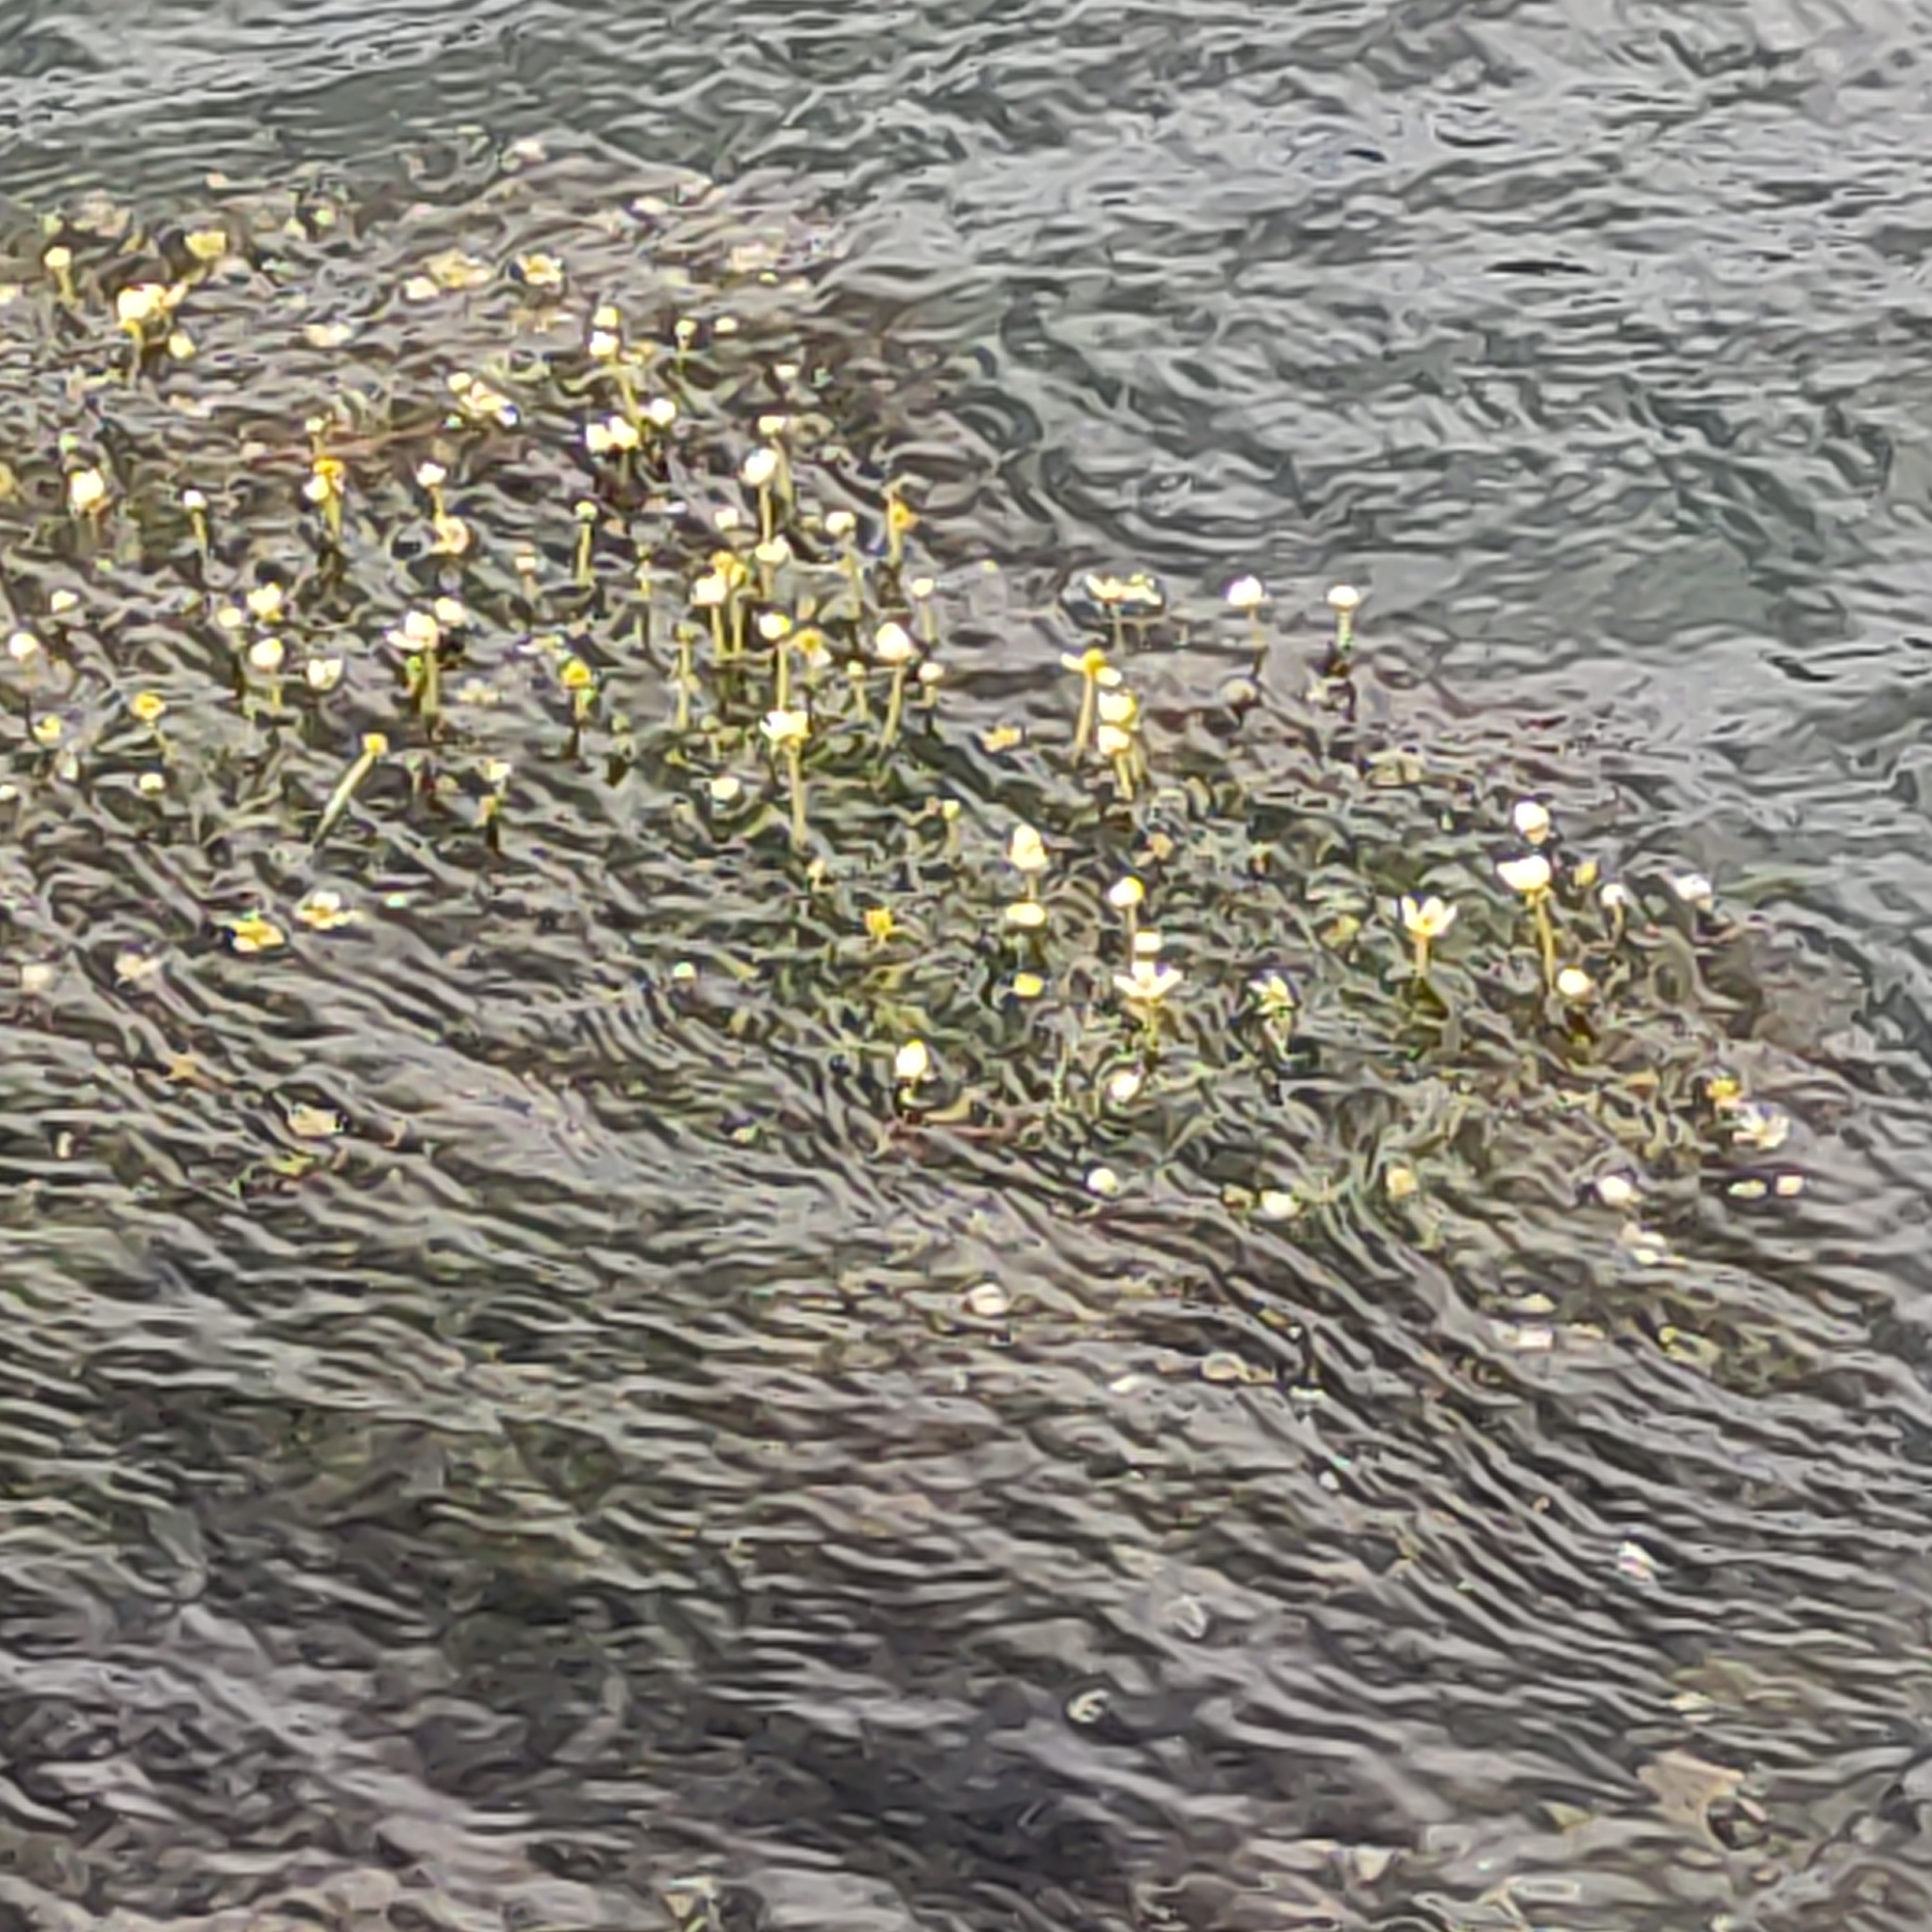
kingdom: Plantae
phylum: Tracheophyta
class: Magnoliopsida
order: Ranunculales
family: Ranunculaceae
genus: Ranunculus
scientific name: Ranunculus trichophyllus
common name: Thread-leaved water-crowfoot
